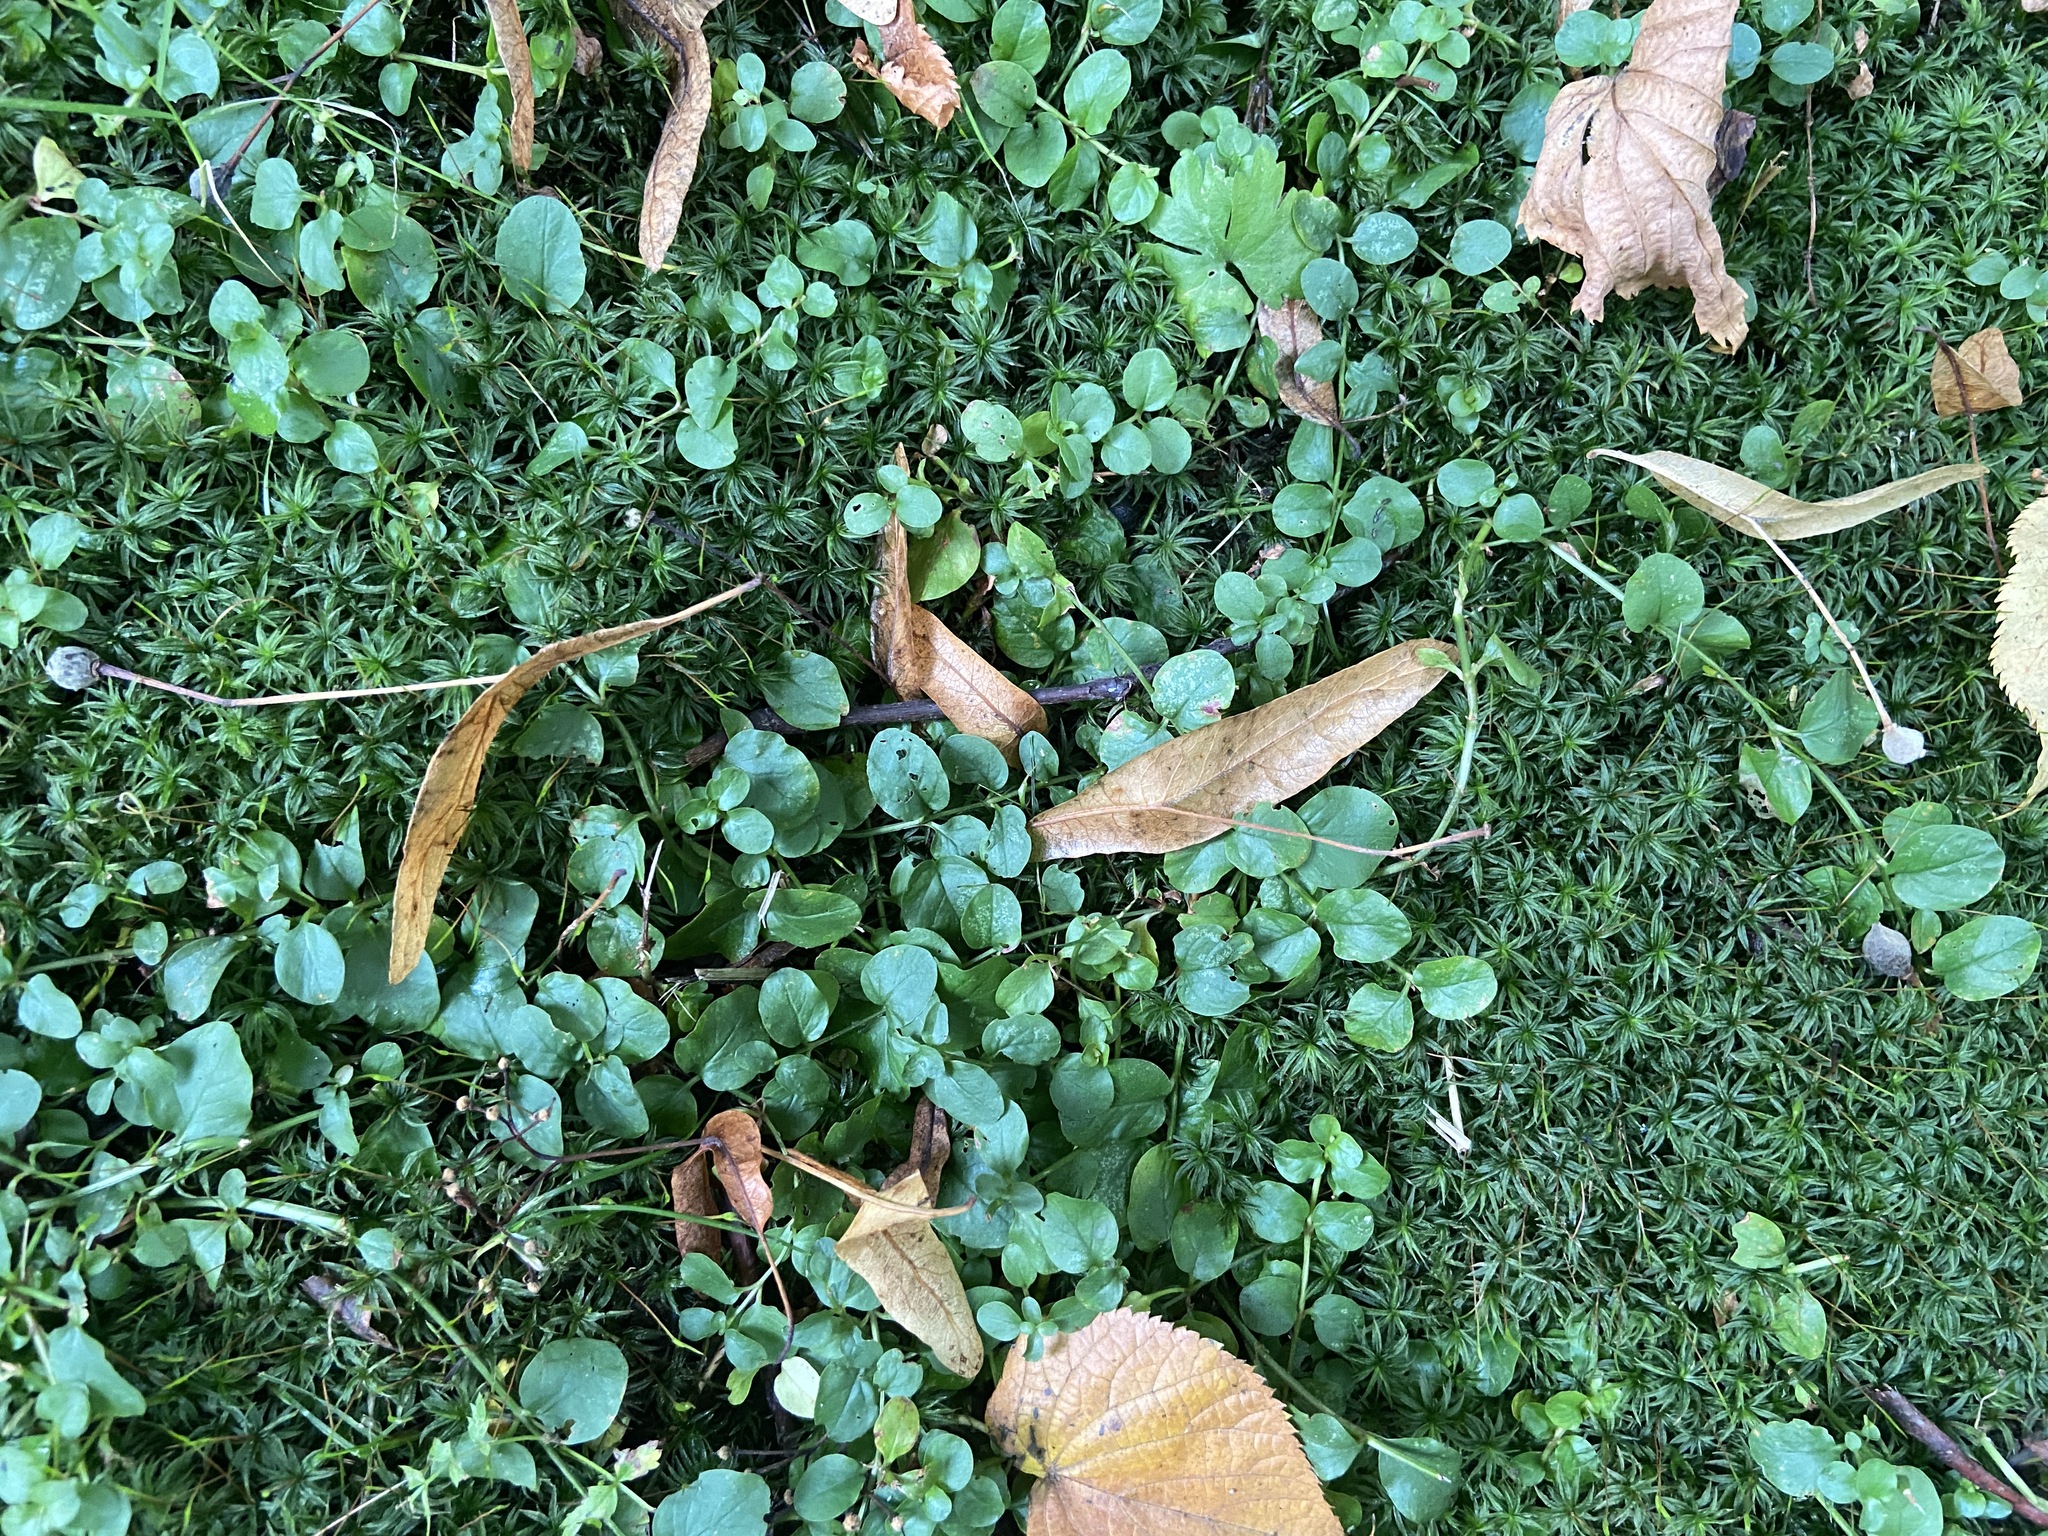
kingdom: Plantae
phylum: Tracheophyta
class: Magnoliopsida
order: Ericales
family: Primulaceae
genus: Lysimachia
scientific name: Lysimachia nummularia
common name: Moneywort
